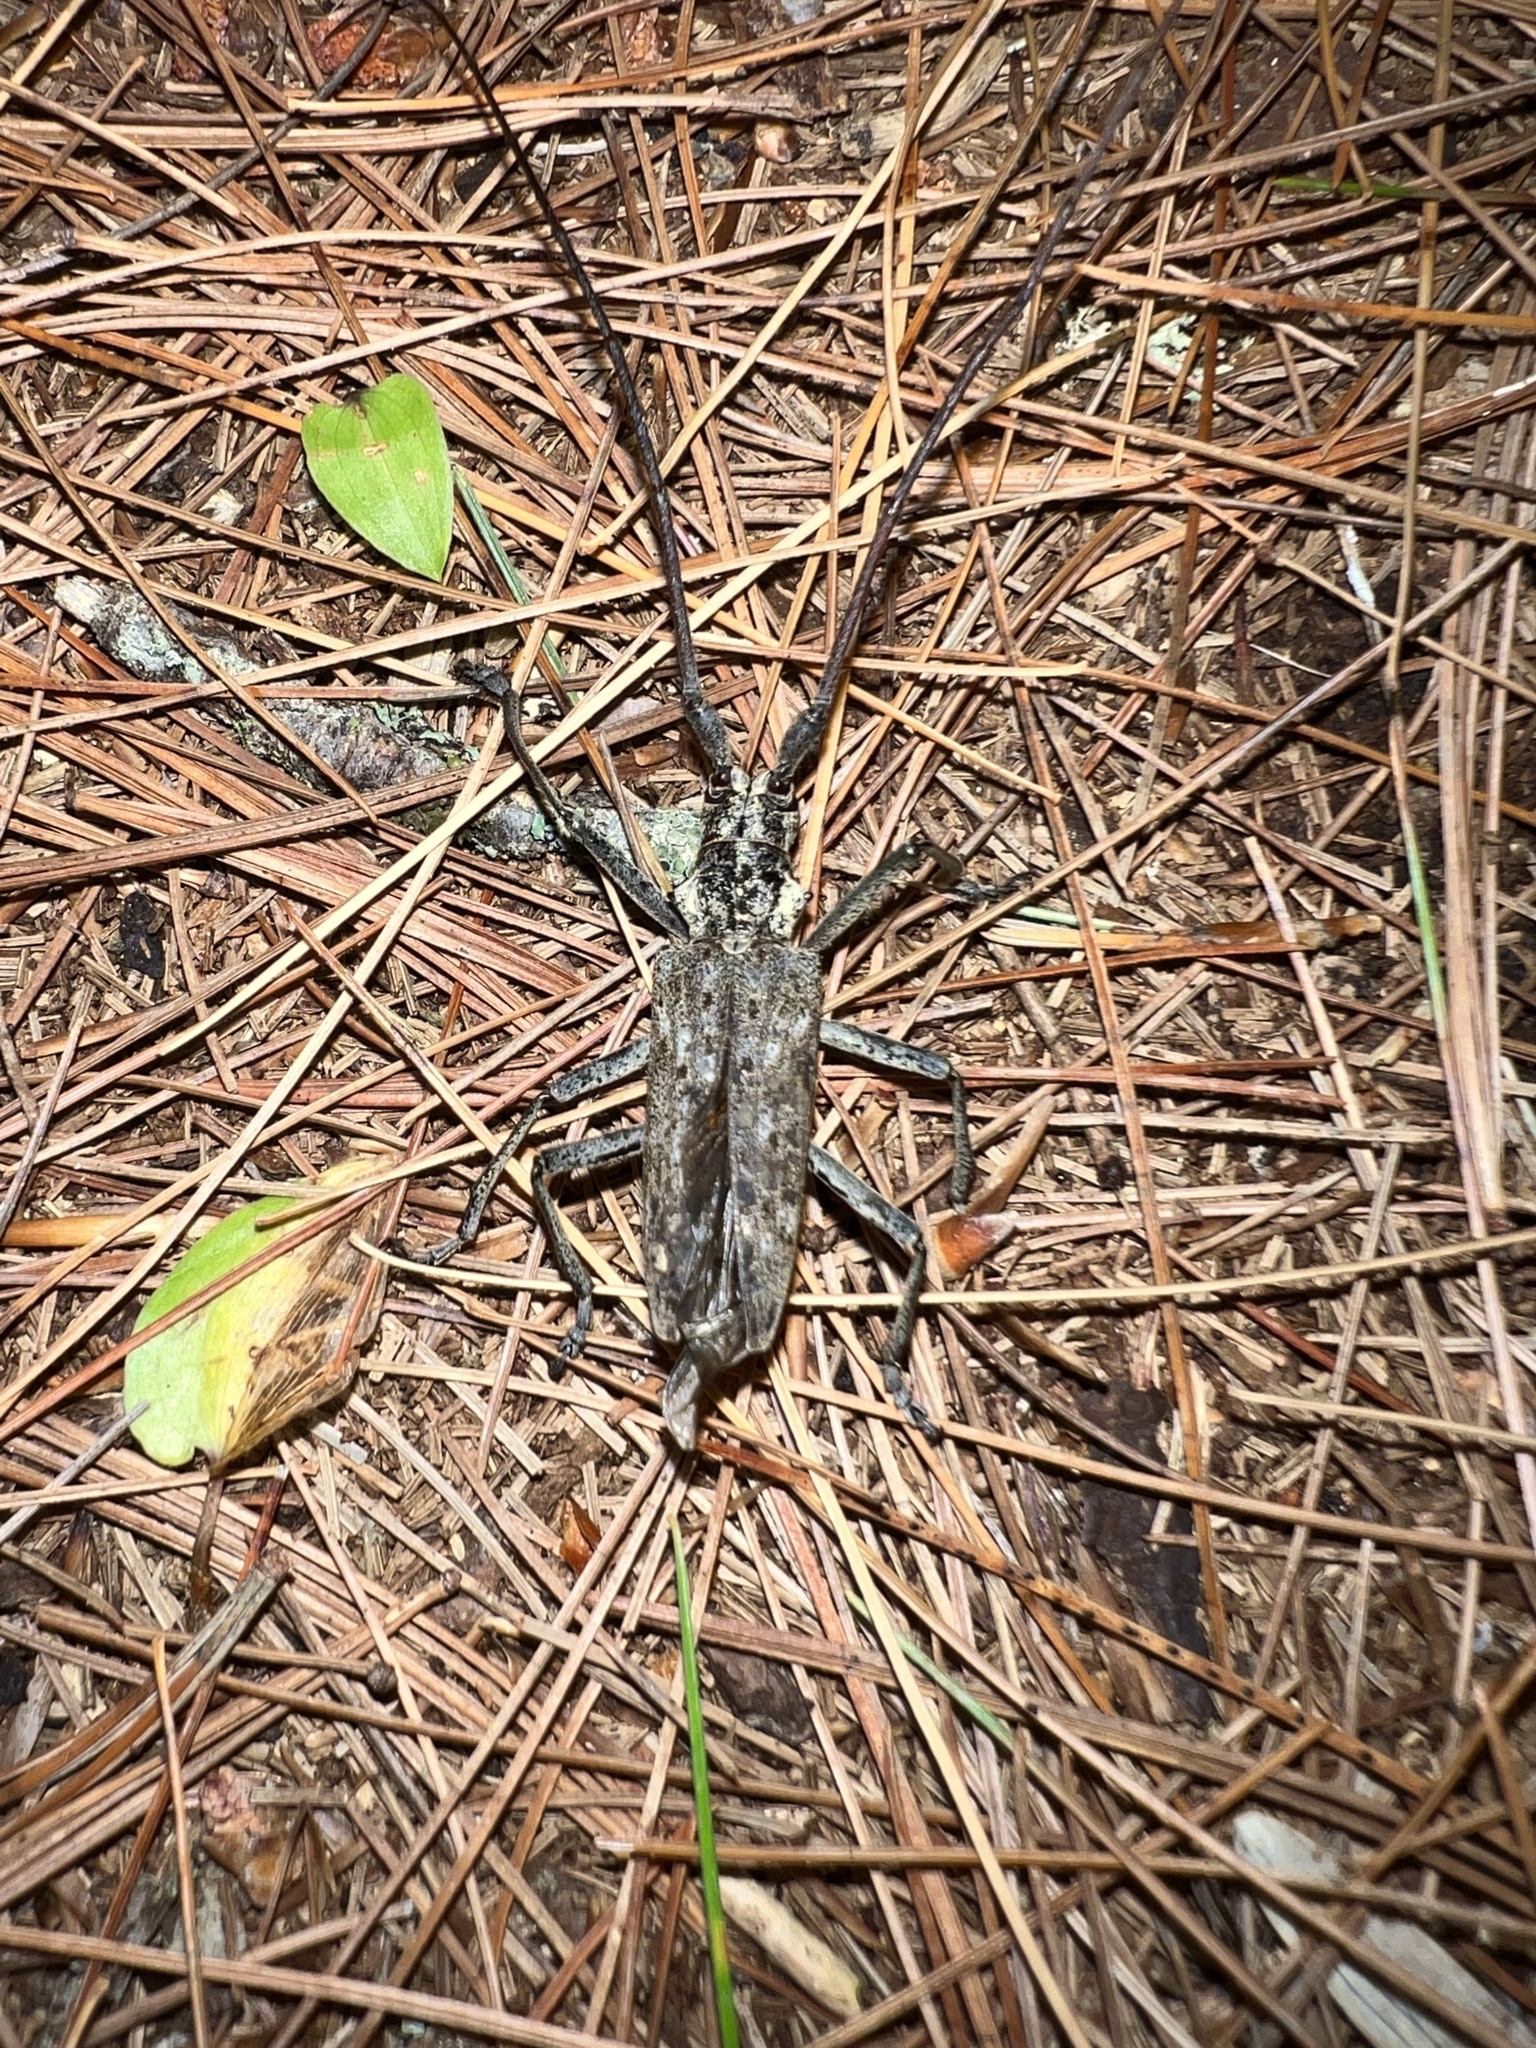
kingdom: Animalia
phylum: Arthropoda
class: Insecta
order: Coleoptera
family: Cerambycidae
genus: Monochamus
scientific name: Monochamus notatus
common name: Northeastern pine sawyer beetle
